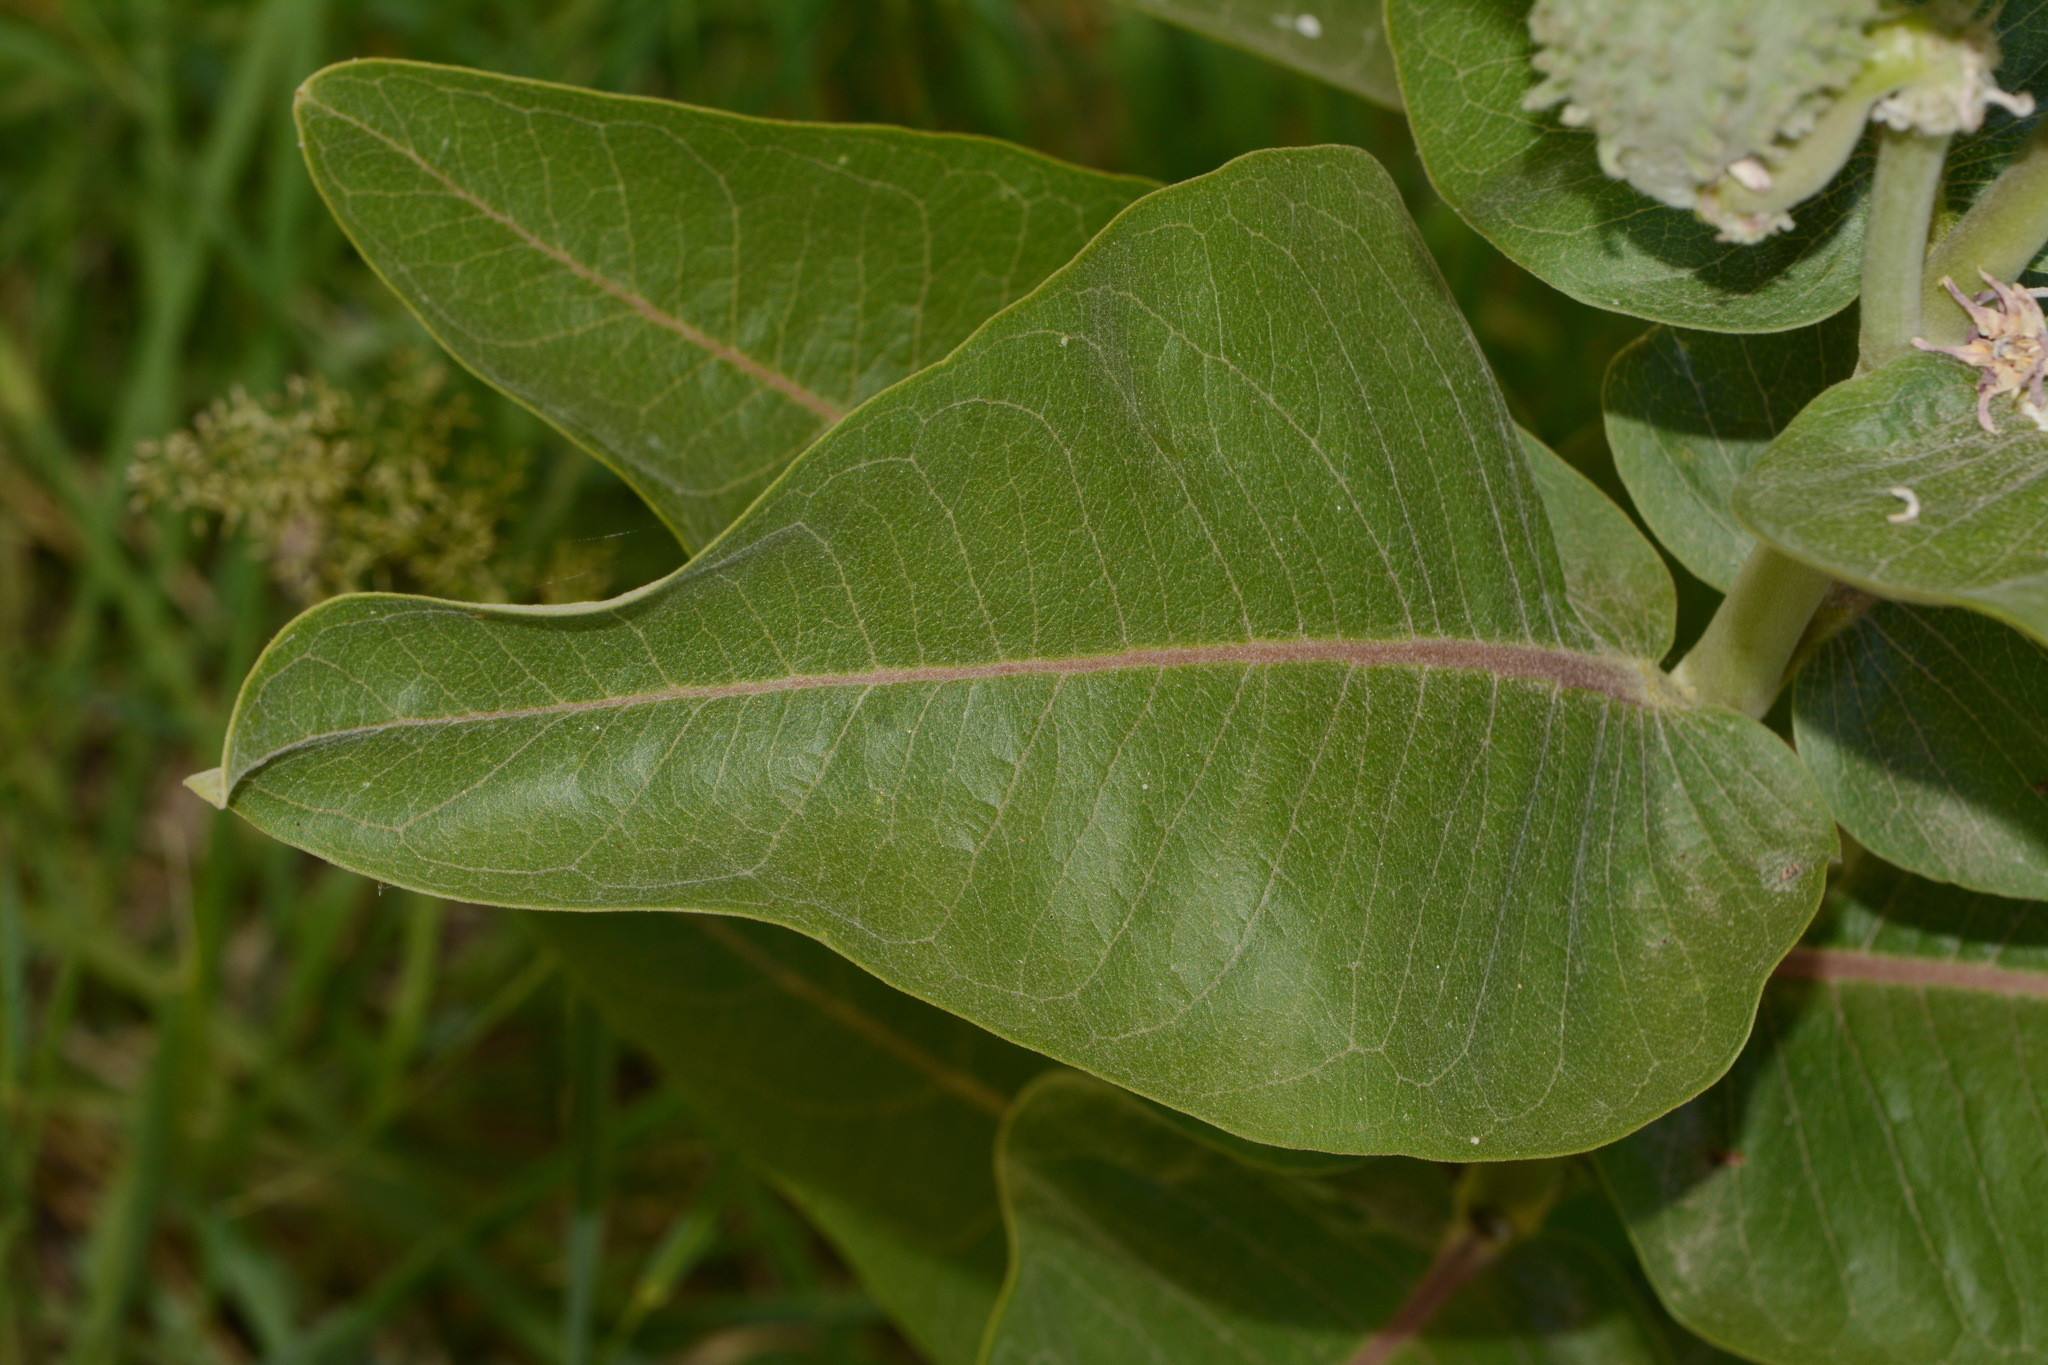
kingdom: Plantae
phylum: Tracheophyta
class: Magnoliopsida
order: Gentianales
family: Apocynaceae
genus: Asclepias
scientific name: Asclepias speciosa
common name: Showy milkweed
